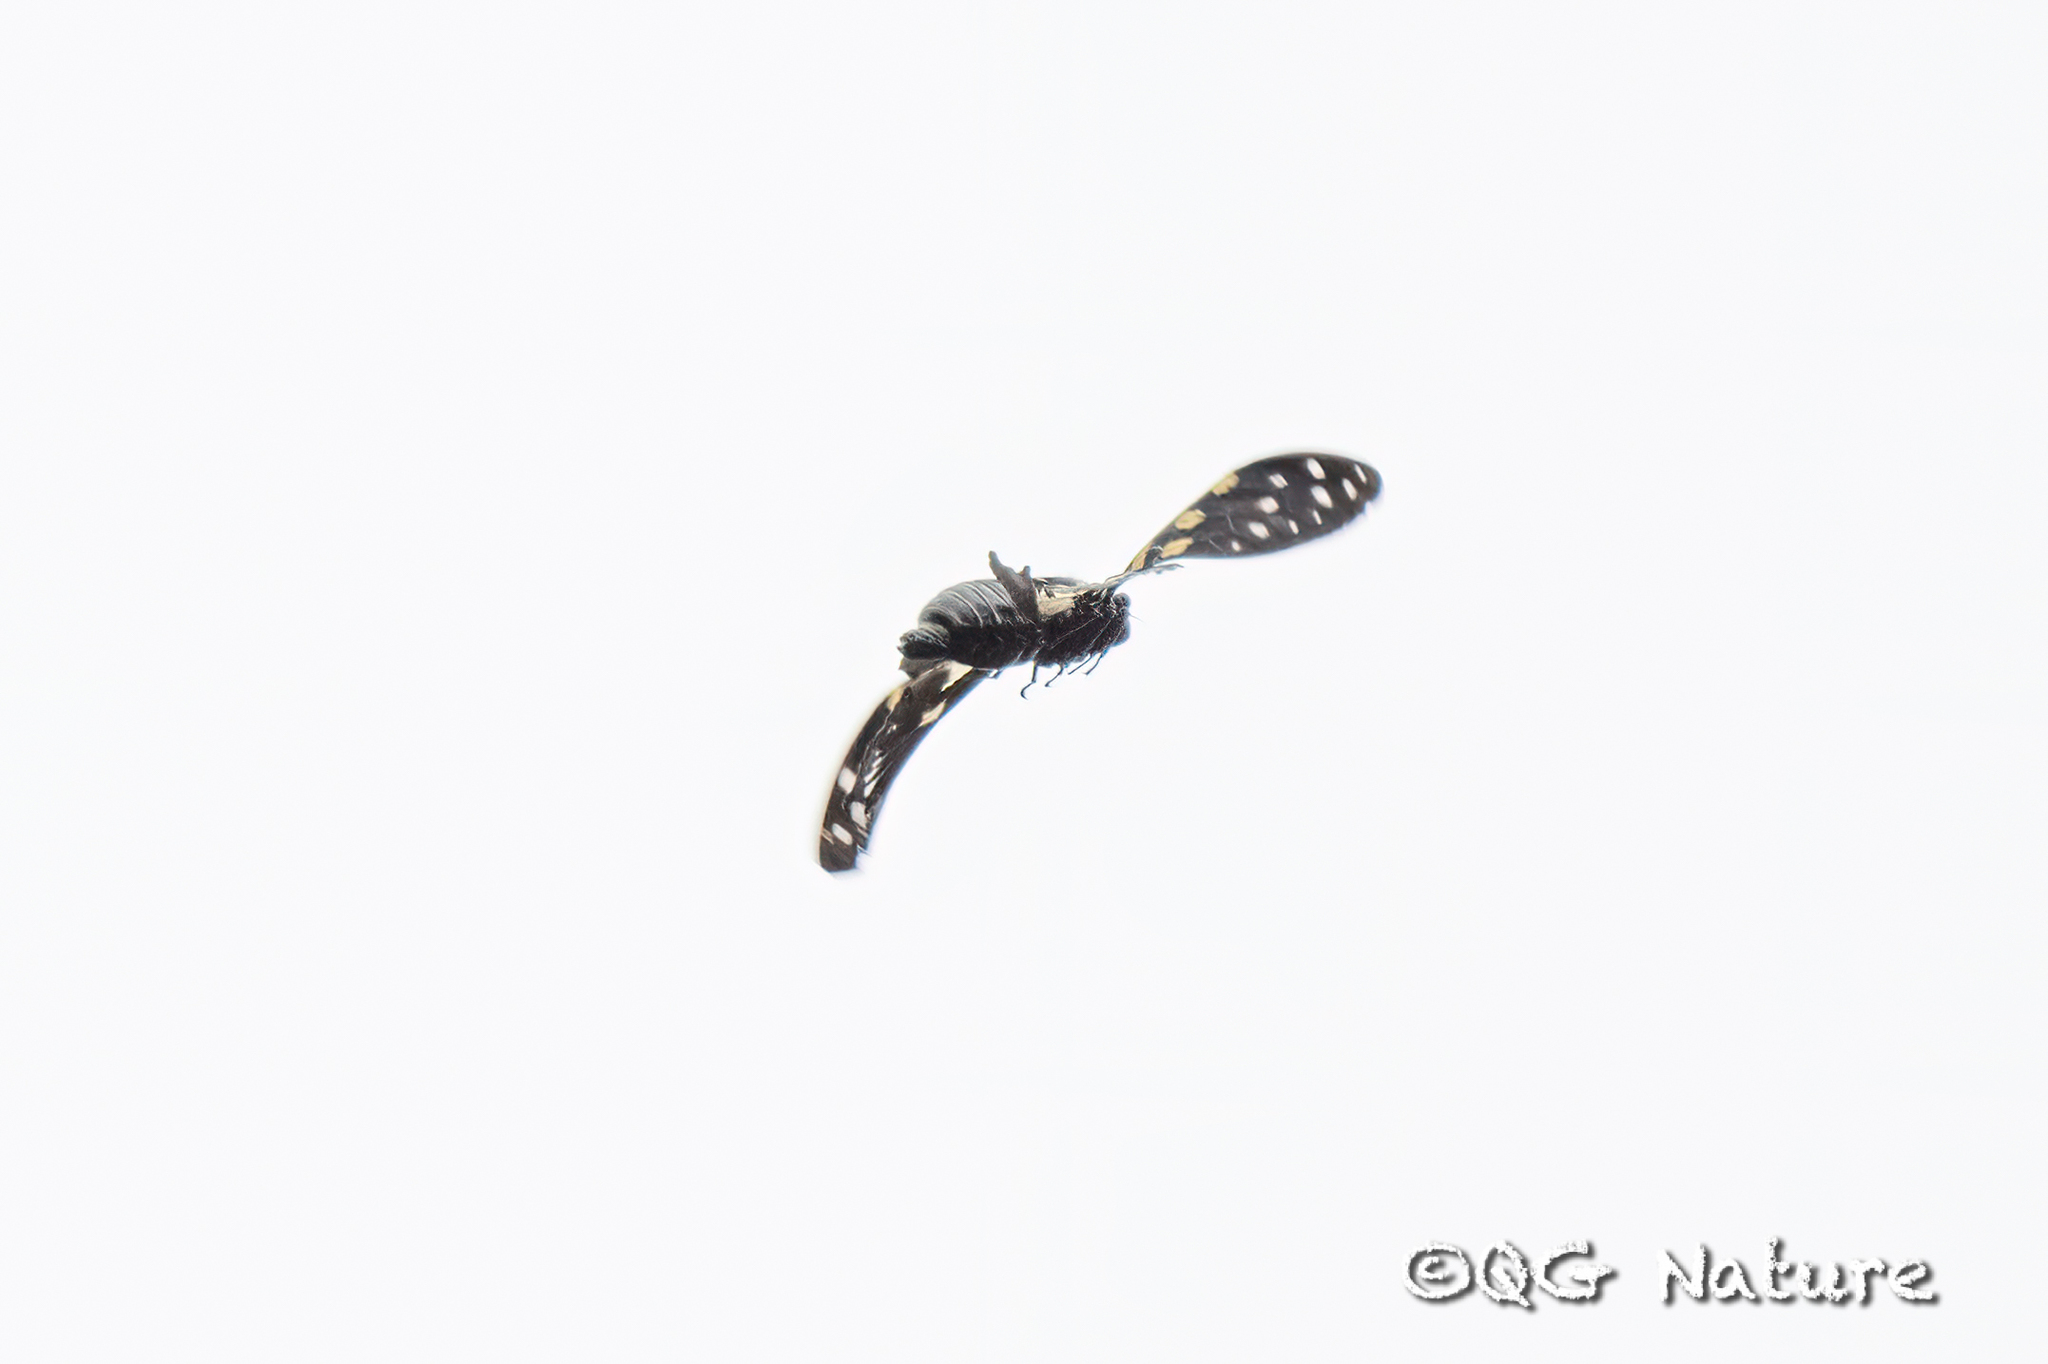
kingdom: Animalia
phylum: Arthropoda
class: Insecta
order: Hemiptera
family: Cicadidae
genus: Gaeana
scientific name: Gaeana maculata
